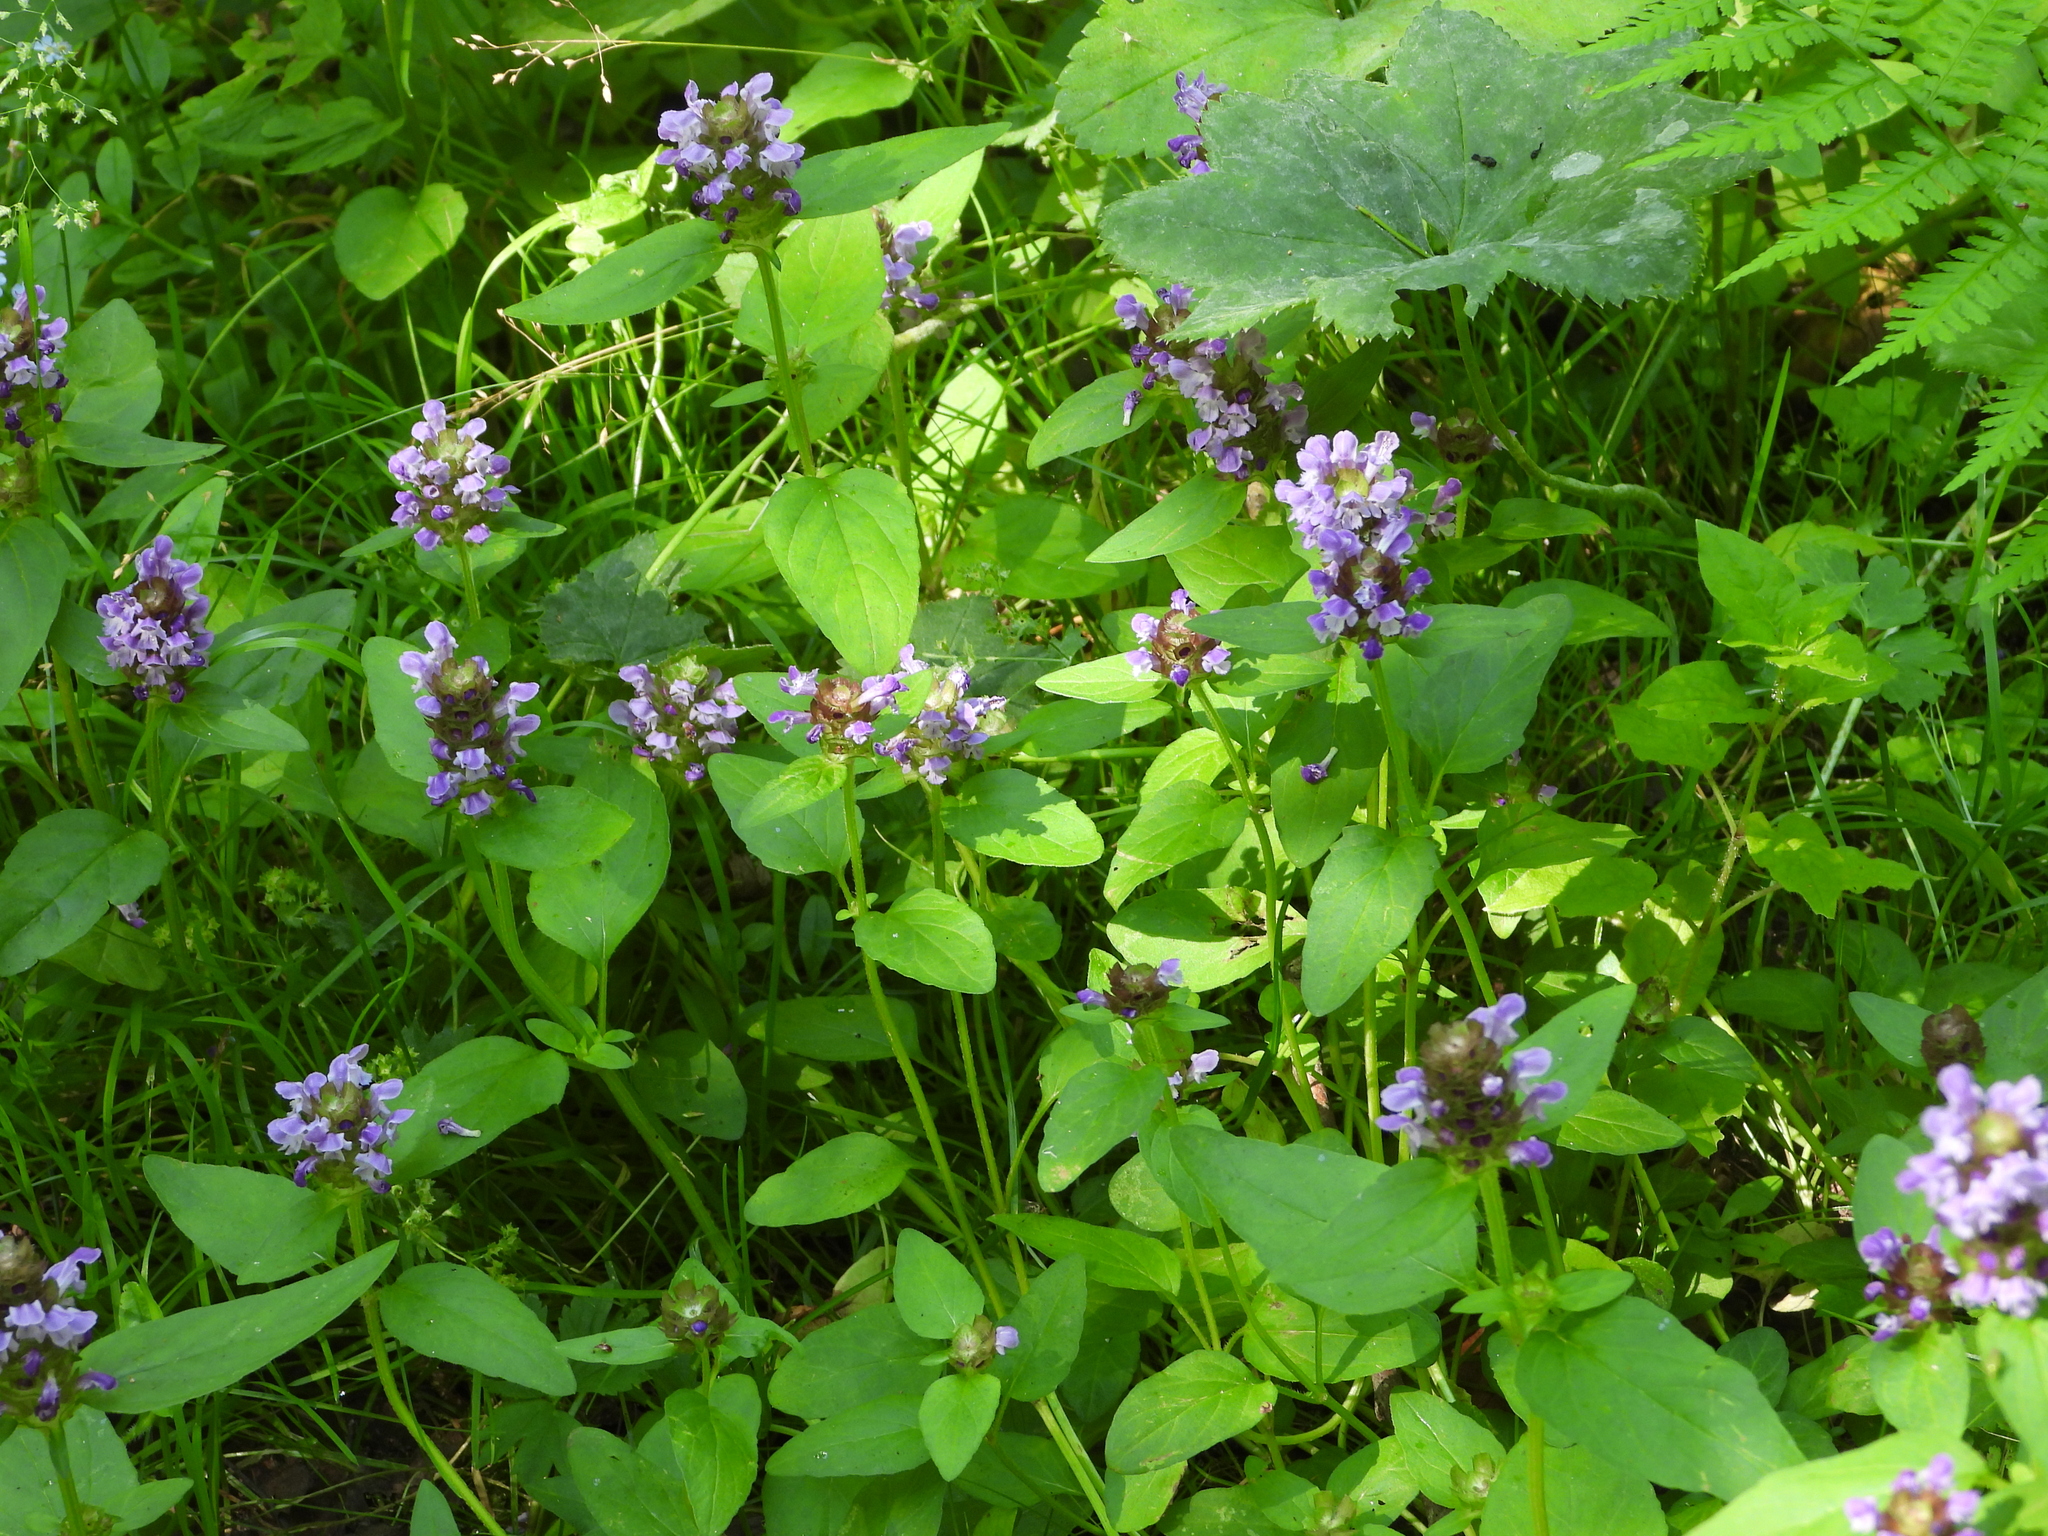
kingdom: Plantae
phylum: Tracheophyta
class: Magnoliopsida
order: Lamiales
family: Lamiaceae
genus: Prunella
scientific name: Prunella vulgaris
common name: Heal-all
